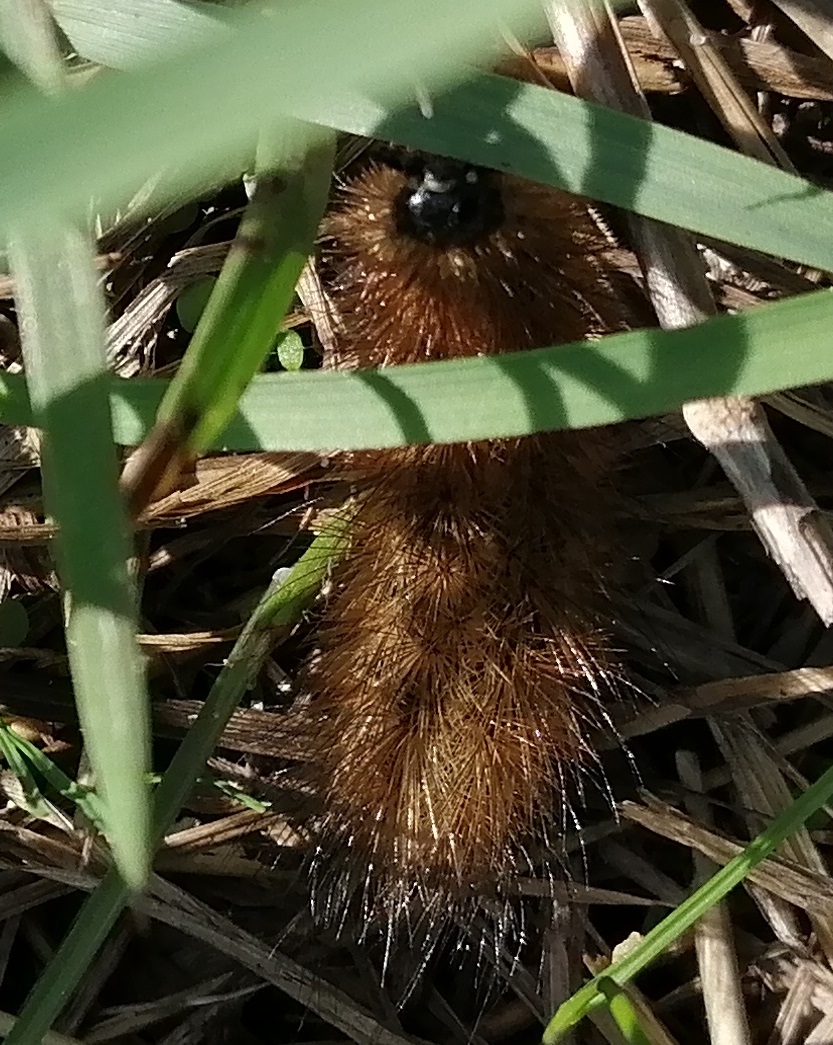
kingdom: Animalia
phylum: Arthropoda
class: Insecta
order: Lepidoptera
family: Erebidae
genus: Phragmatobia
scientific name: Phragmatobia fuliginosa
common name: Ruby tiger
